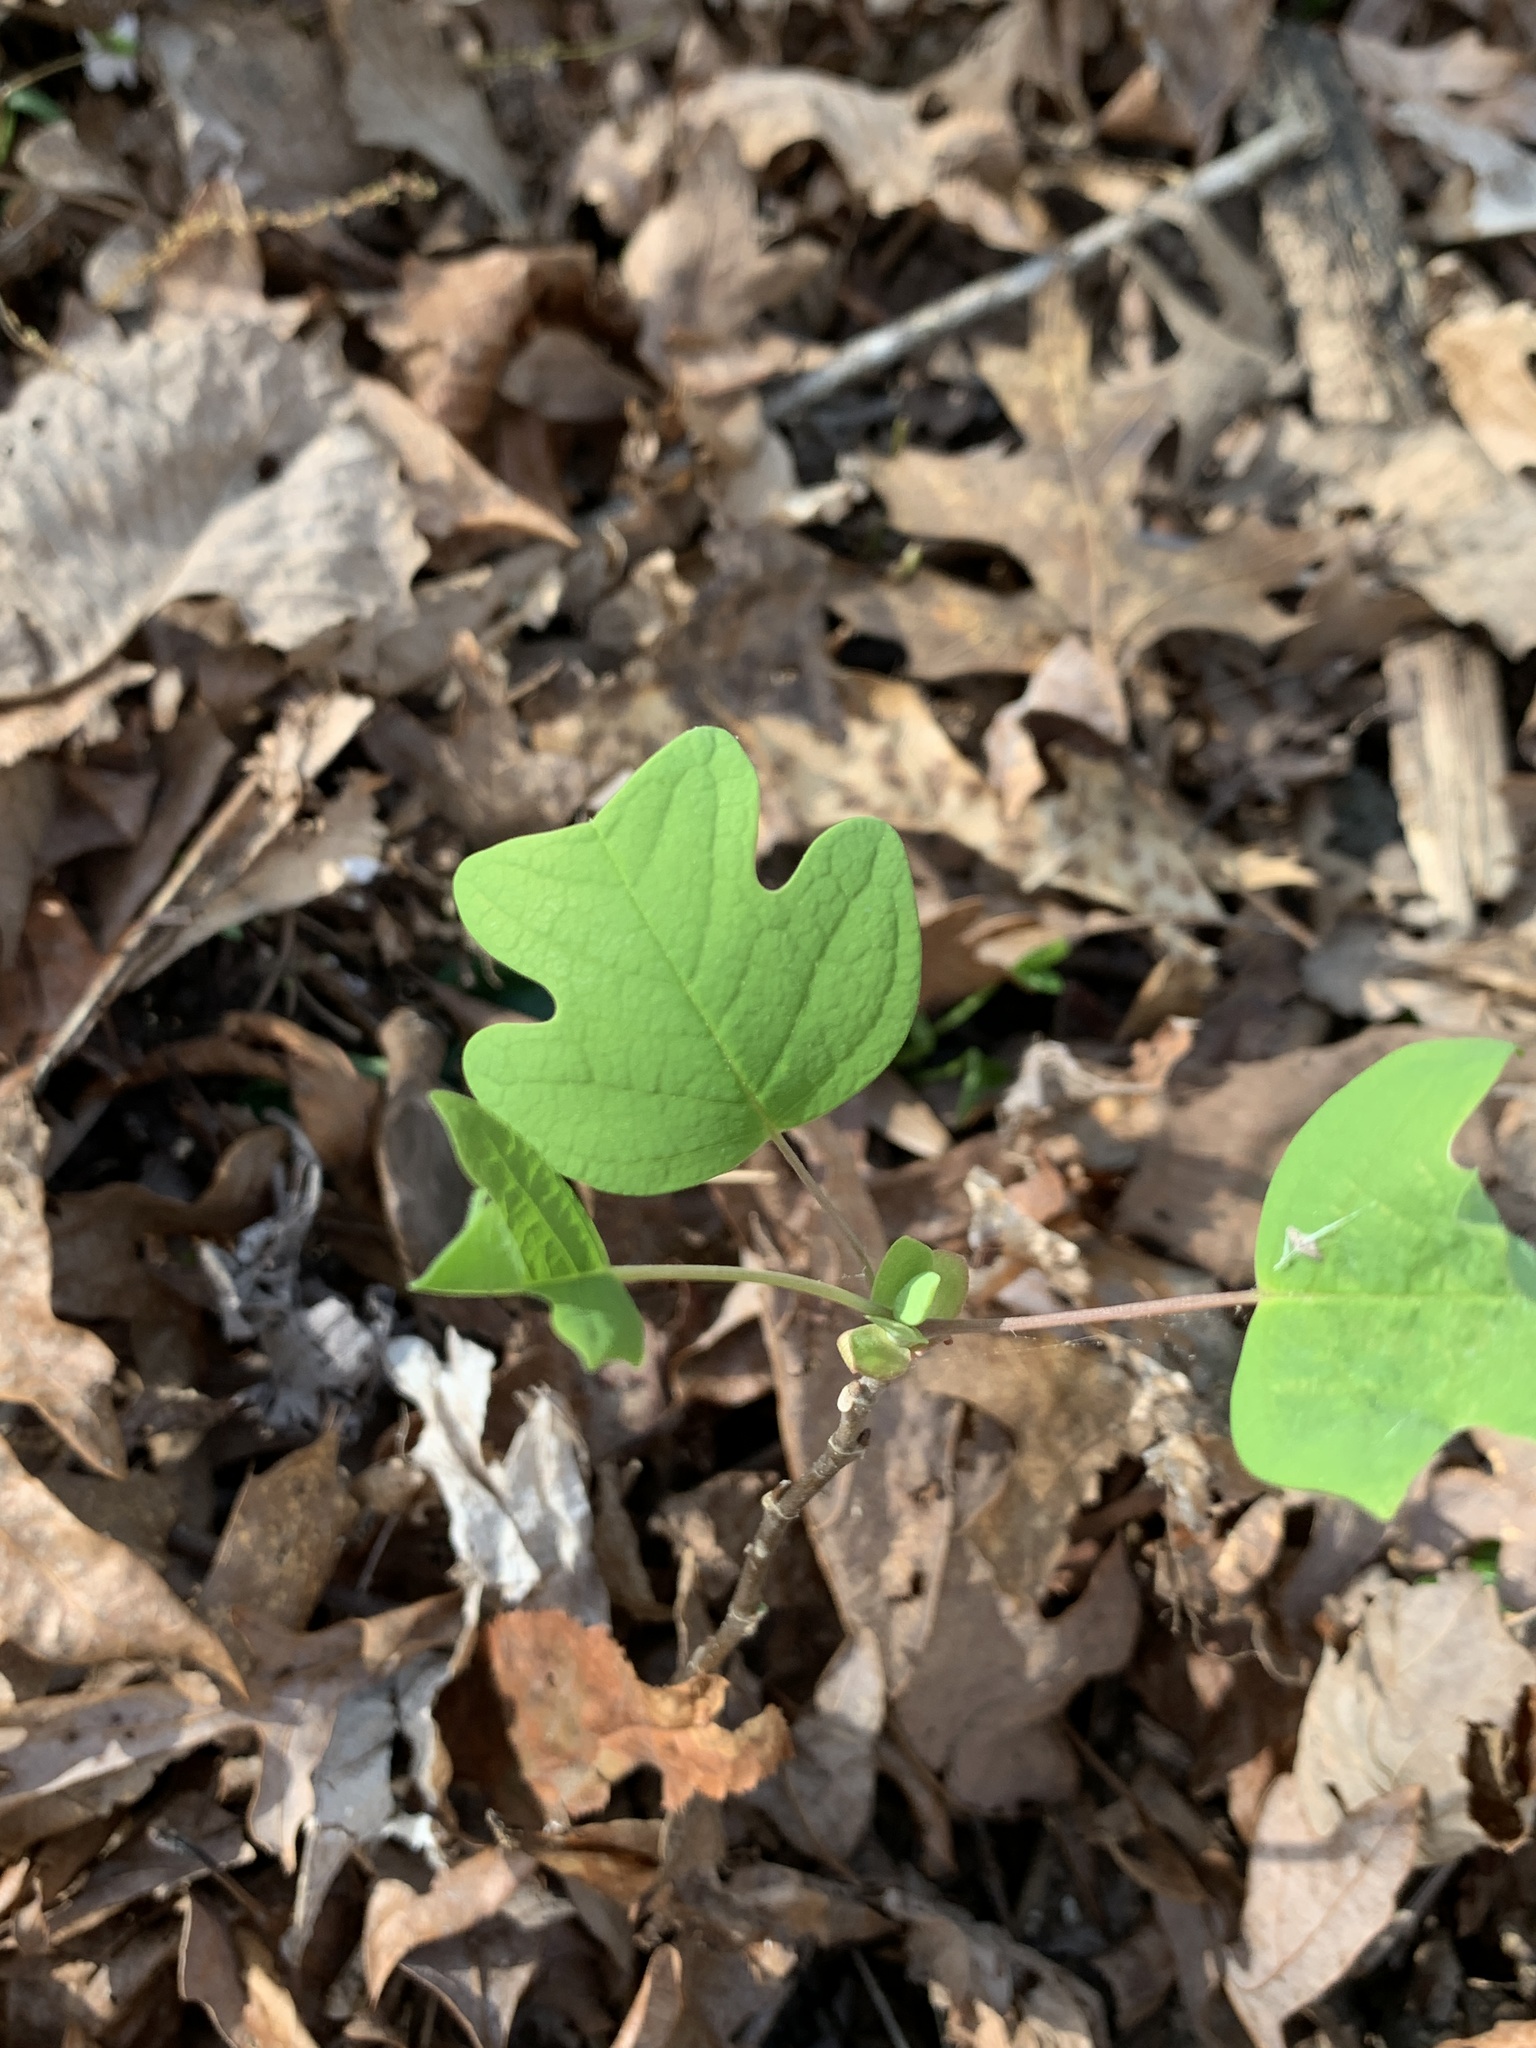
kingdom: Plantae
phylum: Tracheophyta
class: Magnoliopsida
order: Magnoliales
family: Magnoliaceae
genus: Liriodendron
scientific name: Liriodendron tulipifera
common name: Tulip tree
